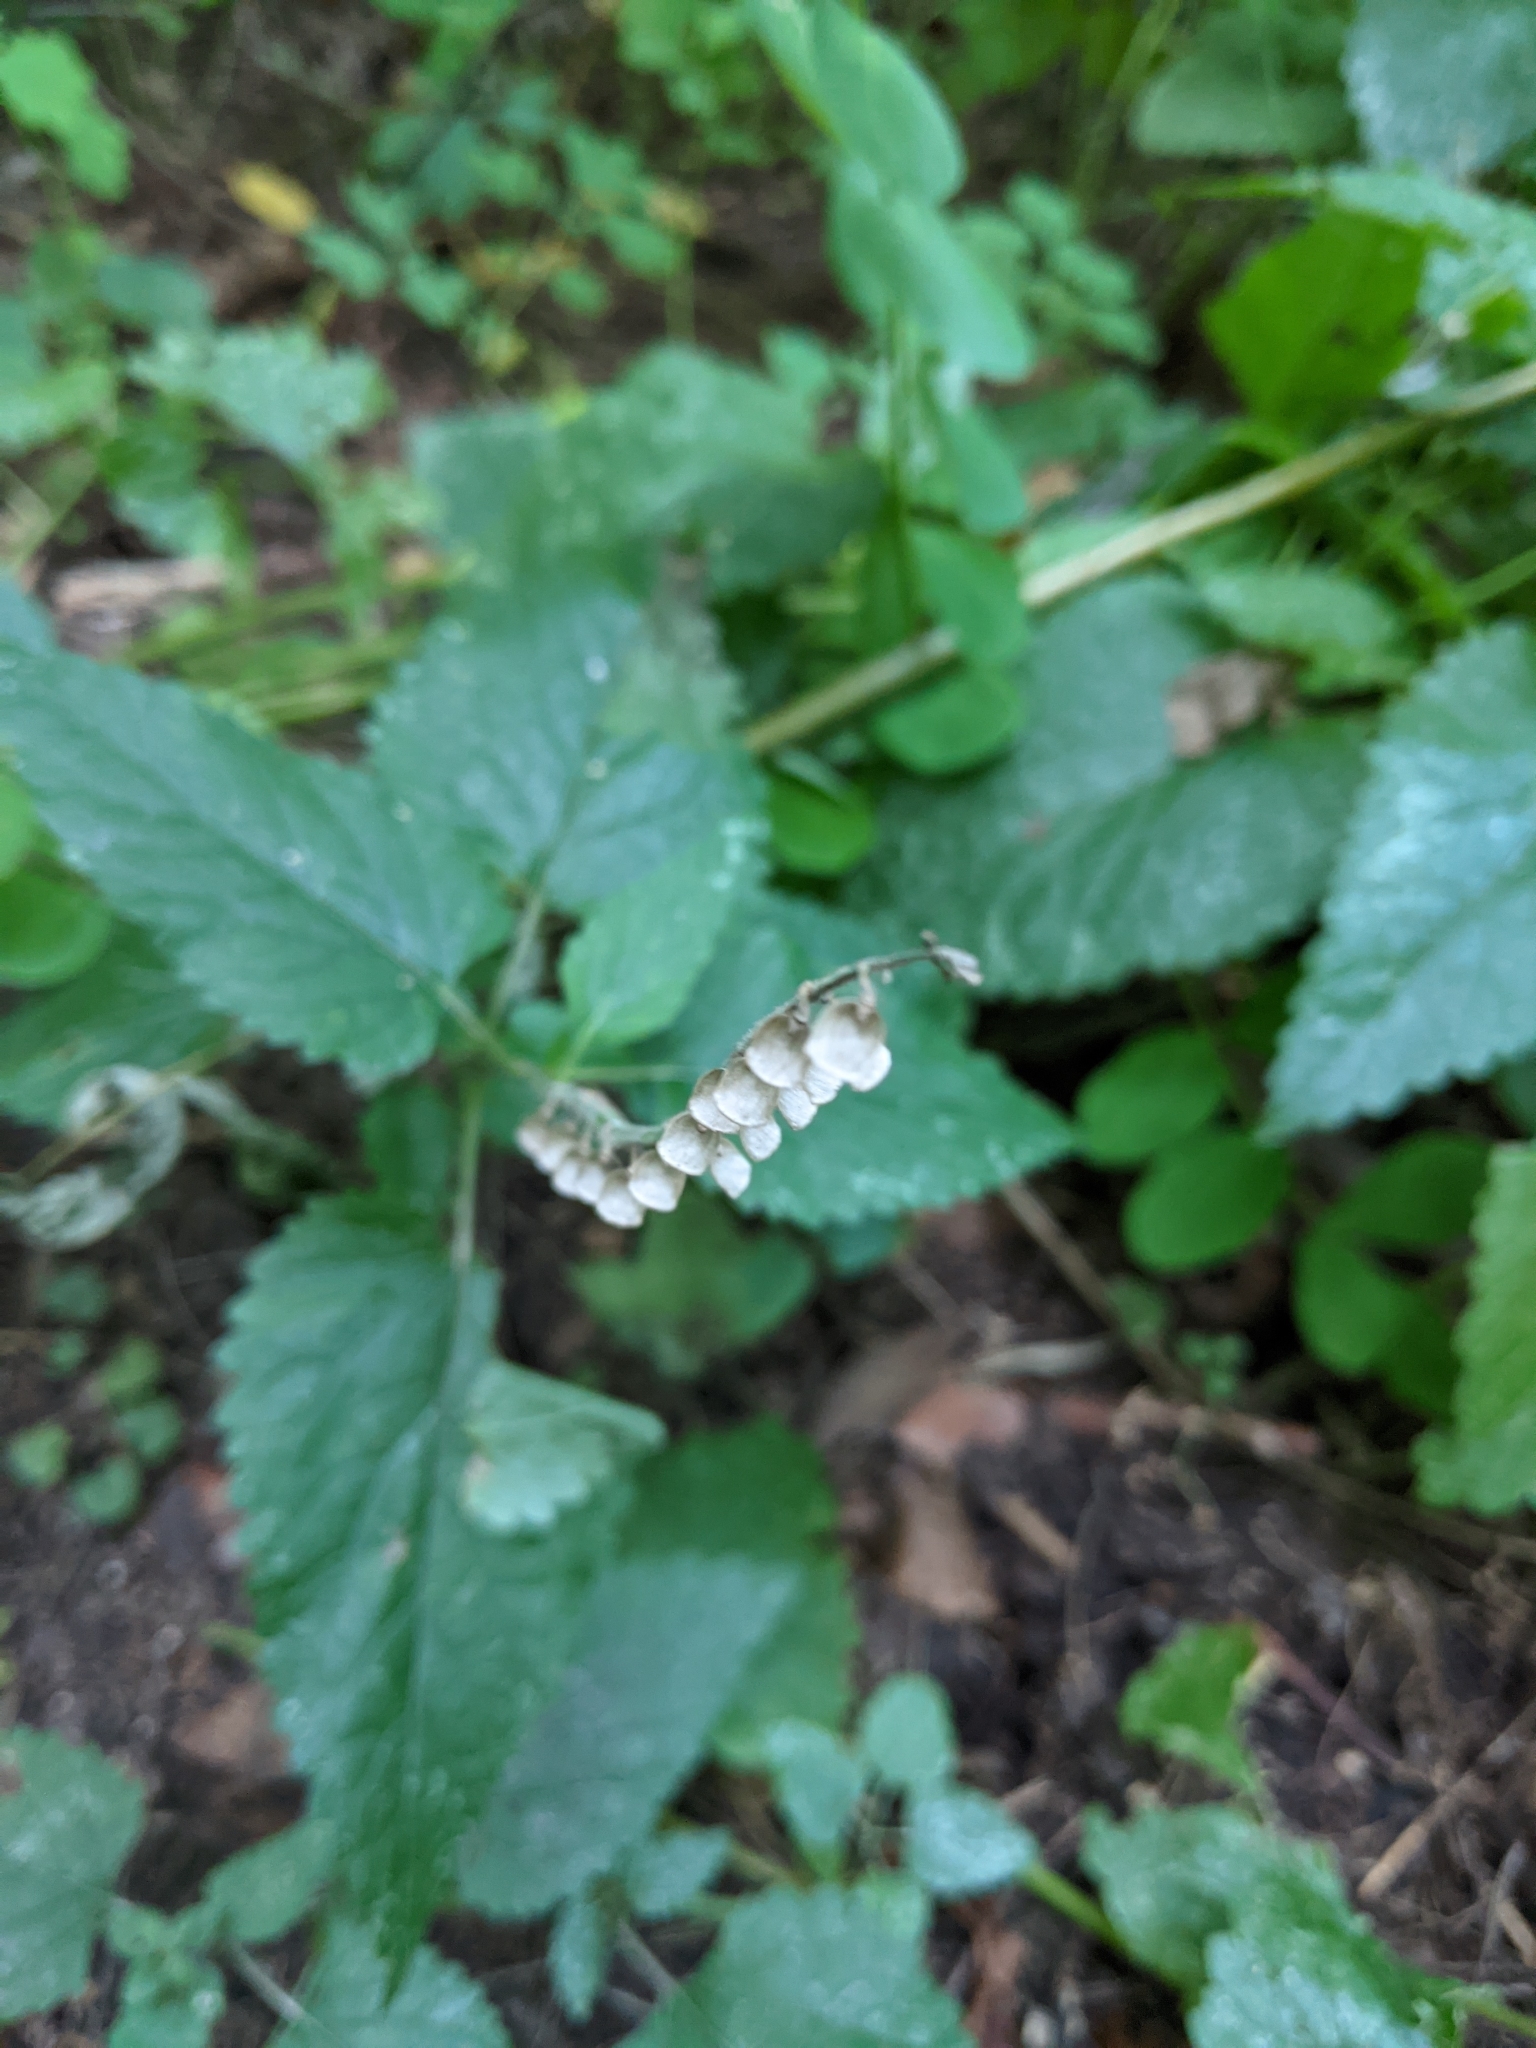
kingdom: Plantae
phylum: Tracheophyta
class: Magnoliopsida
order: Lamiales
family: Lamiaceae
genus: Scutellaria
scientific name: Scutellaria altissima
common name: Somerset skullcap
